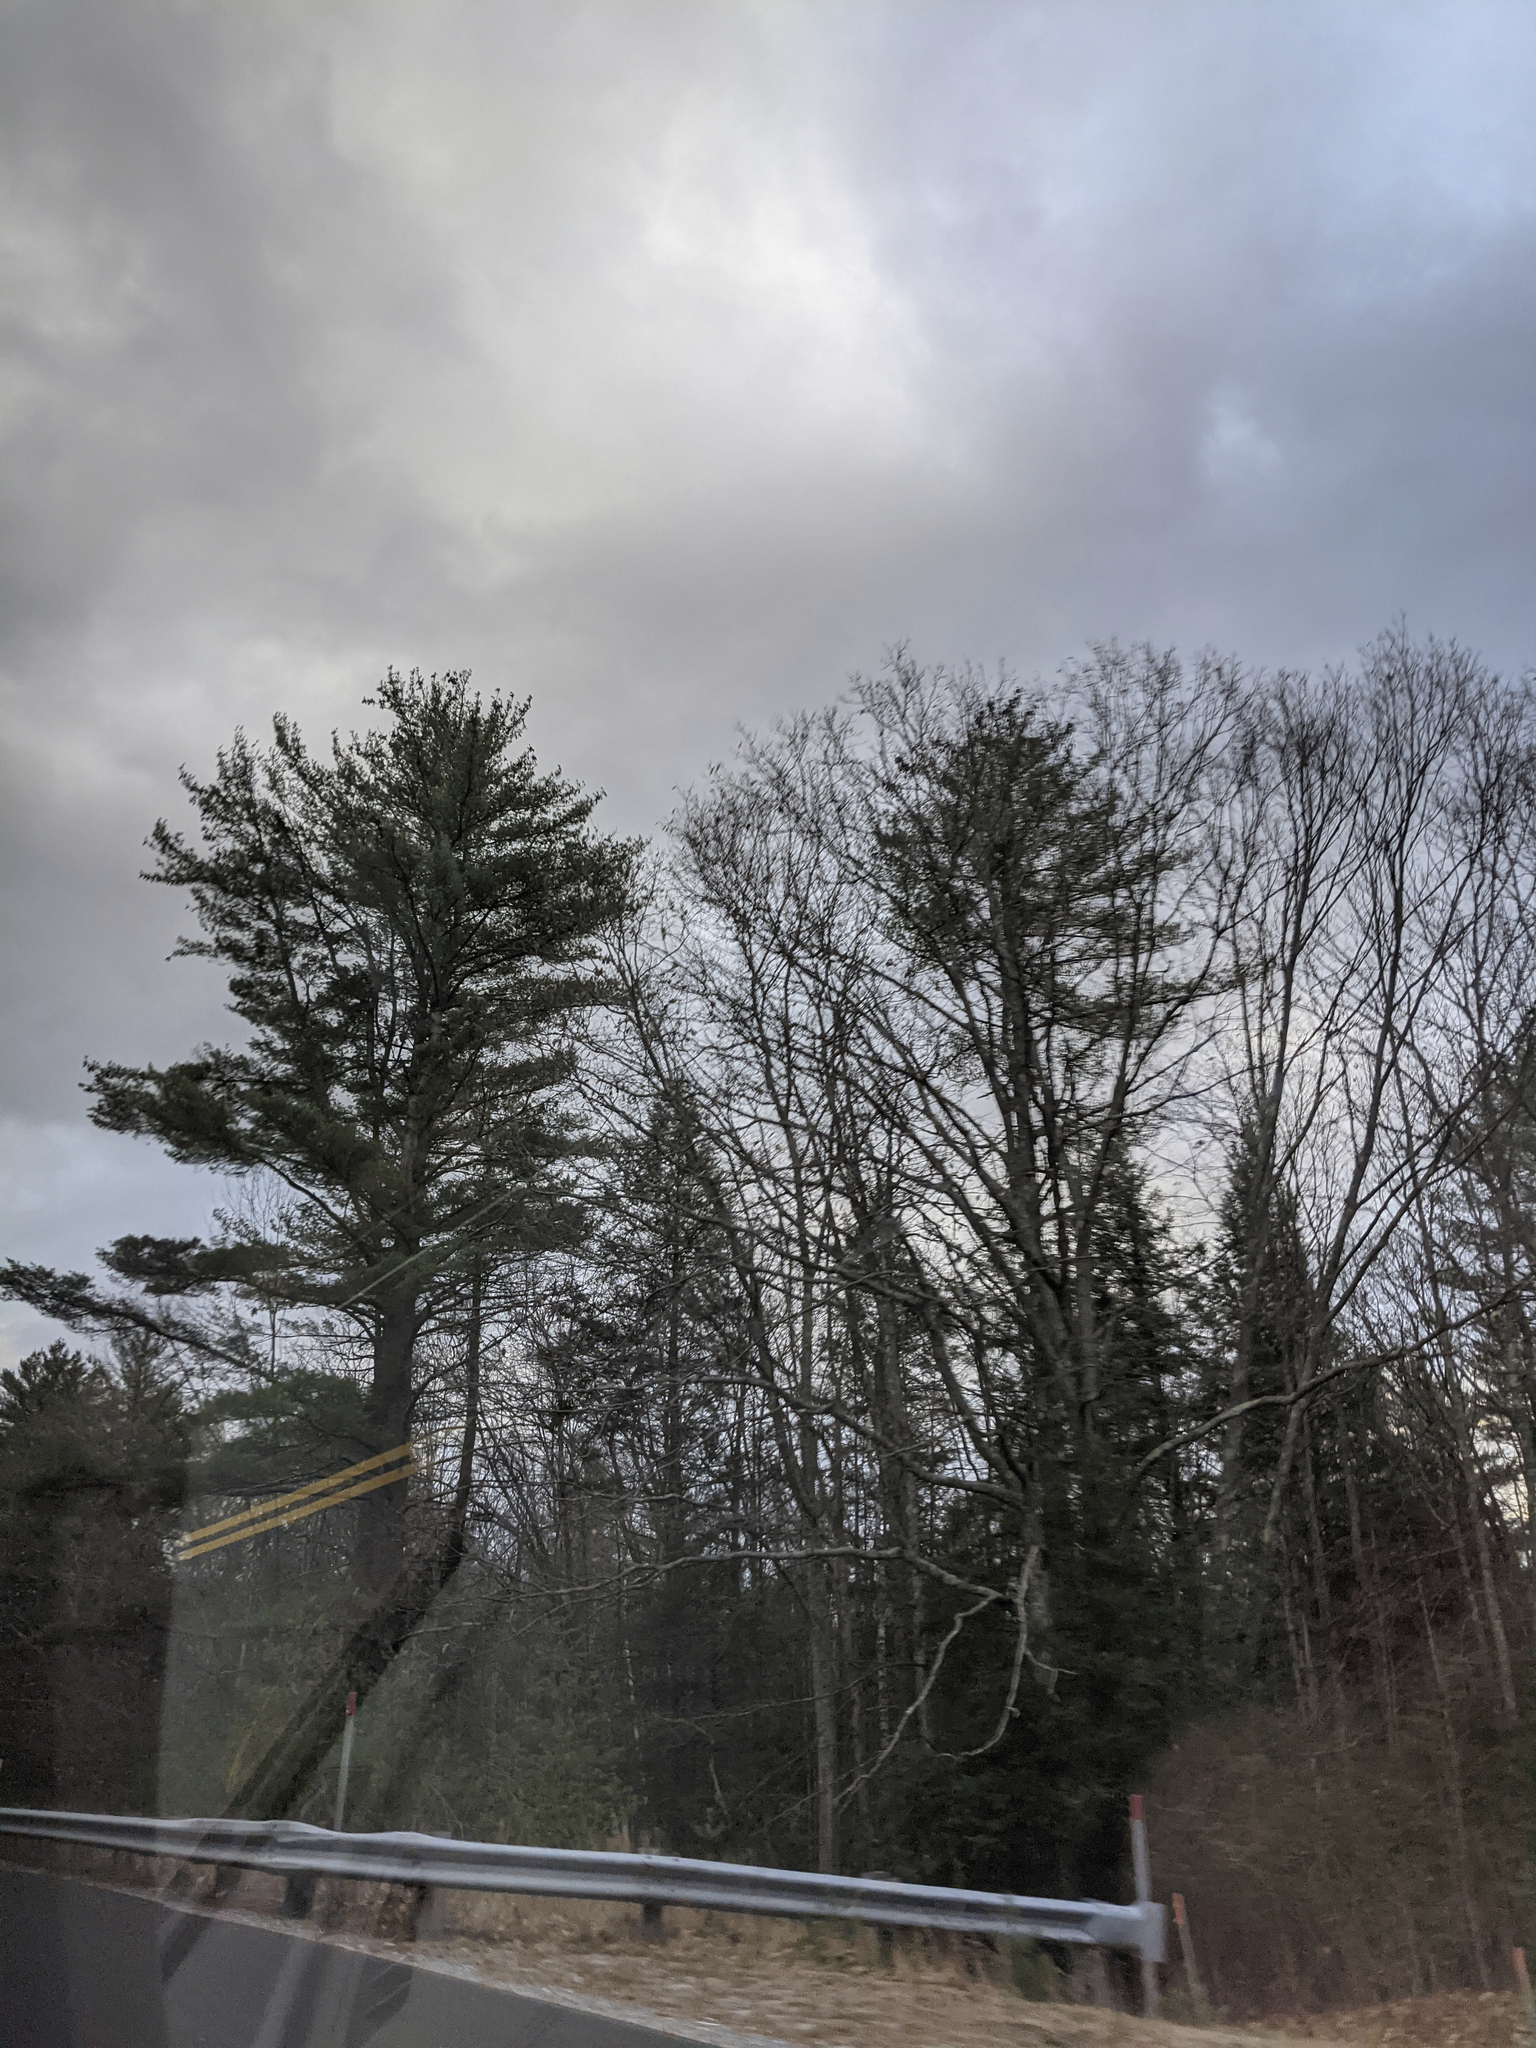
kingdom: Plantae
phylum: Tracheophyta
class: Pinopsida
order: Pinales
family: Pinaceae
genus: Pinus
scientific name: Pinus strobus
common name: Weymouth pine
